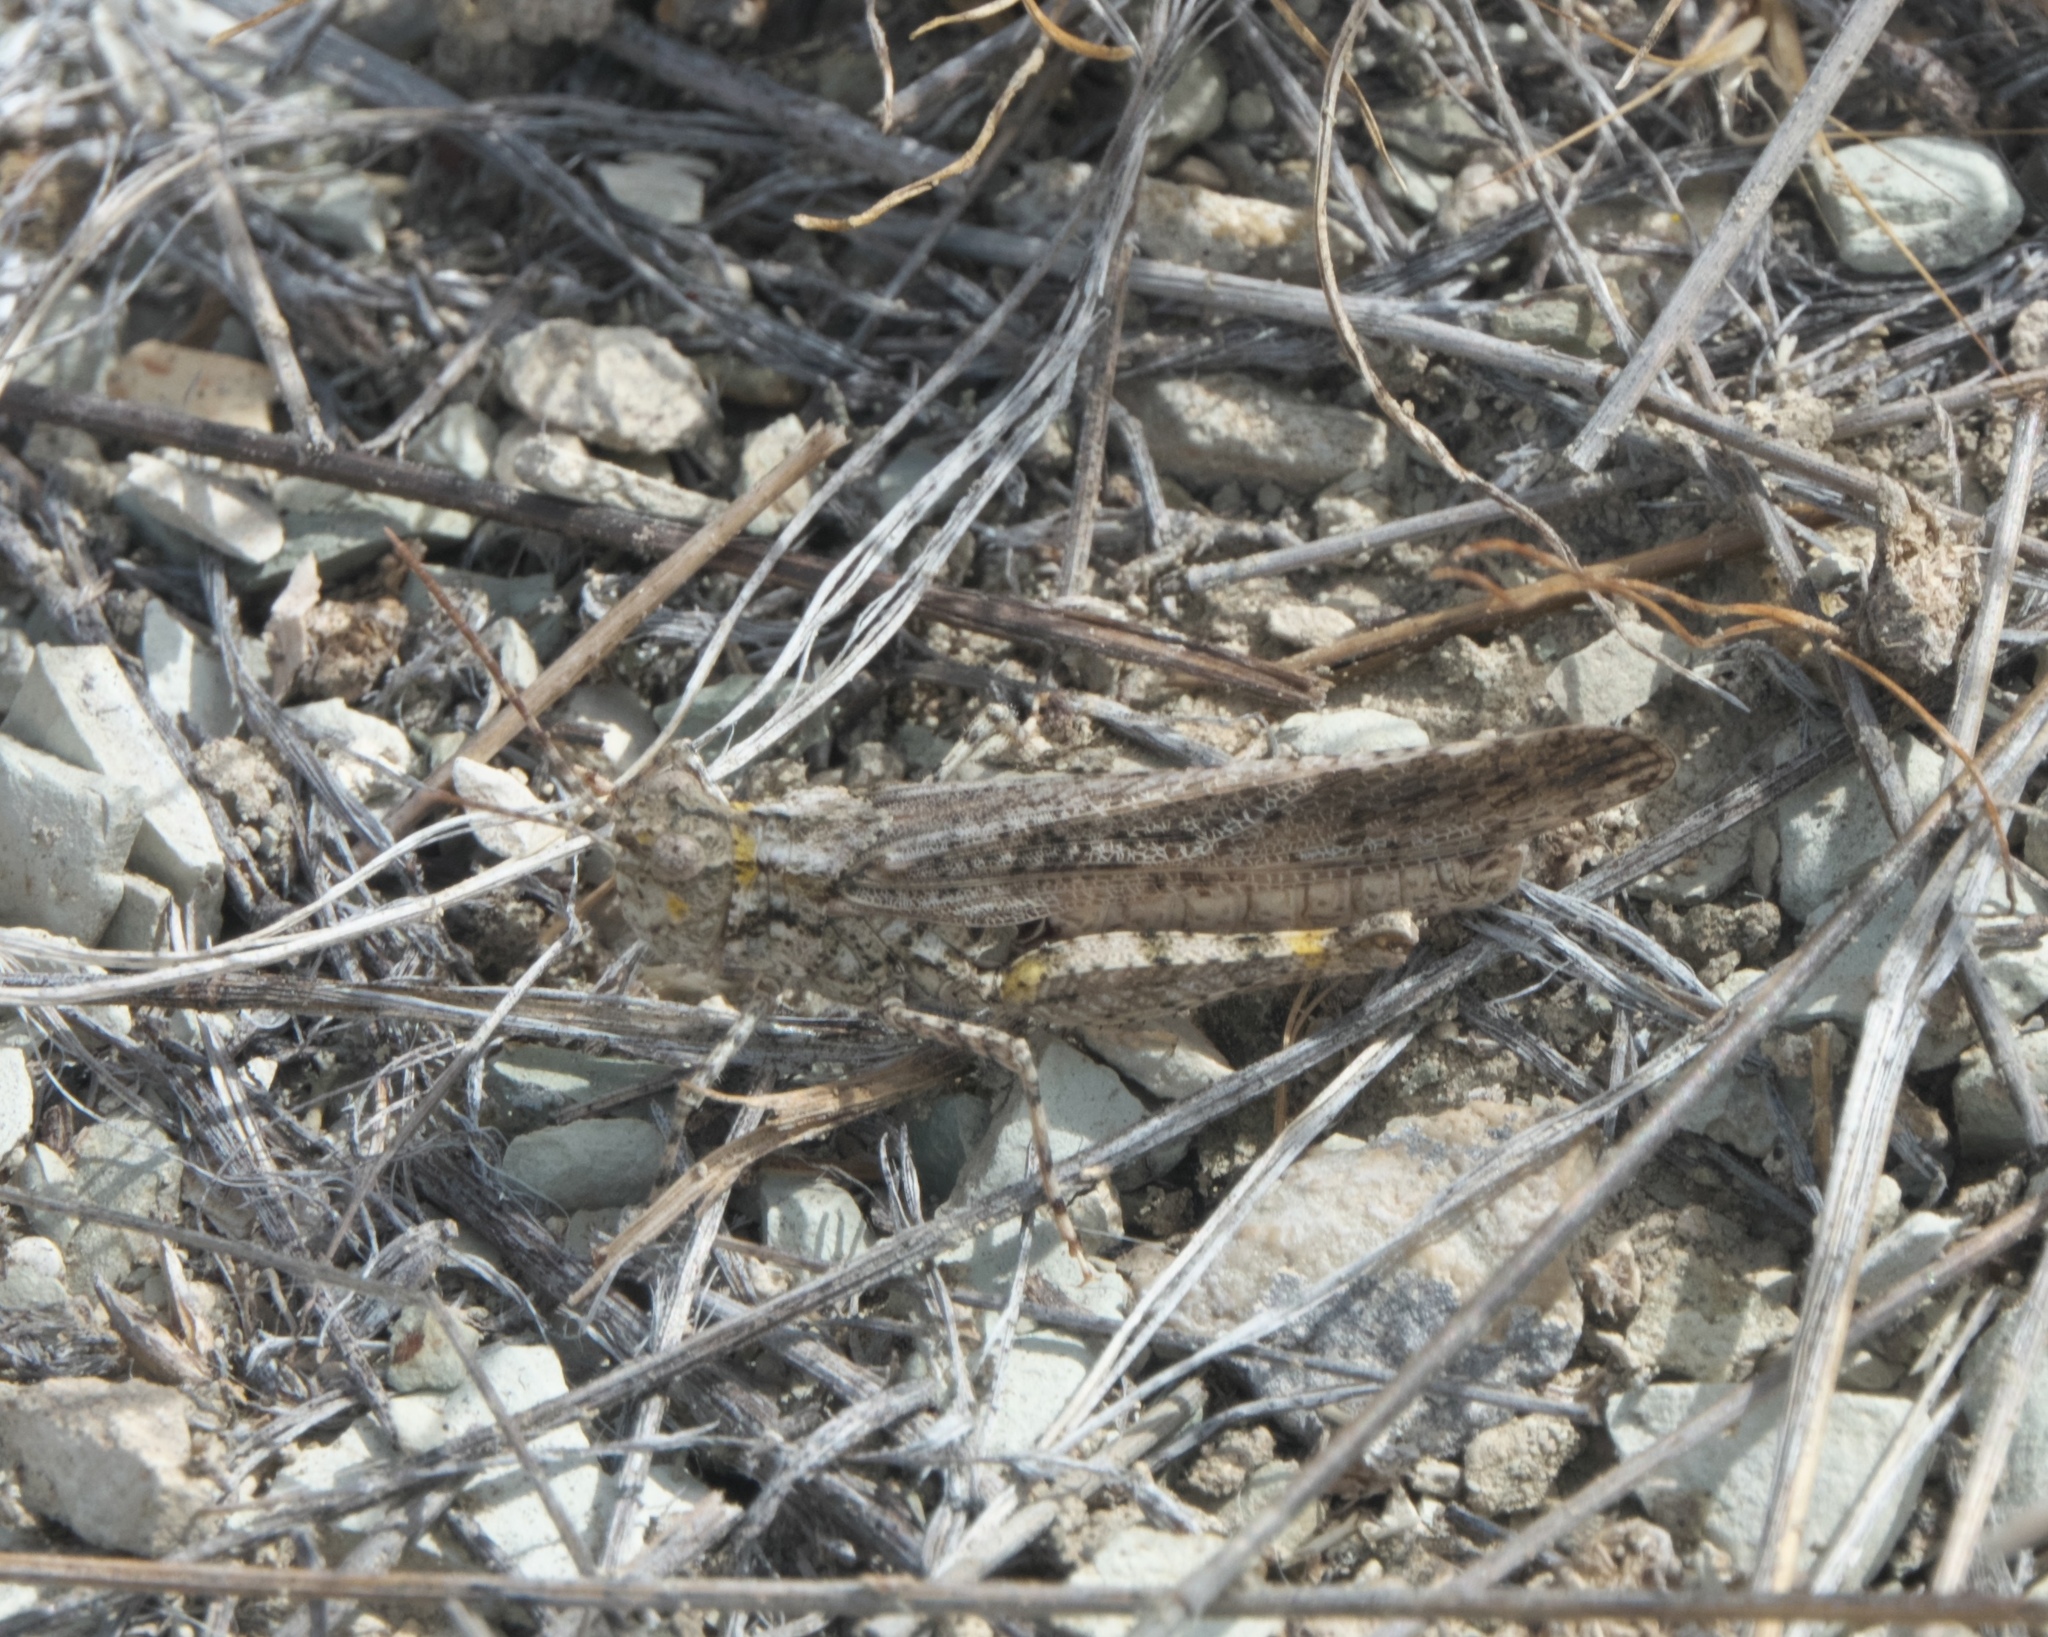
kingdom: Animalia
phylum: Arthropoda
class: Insecta
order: Orthoptera
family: Acrididae
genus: Trimerotropis
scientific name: Trimerotropis gracilis
